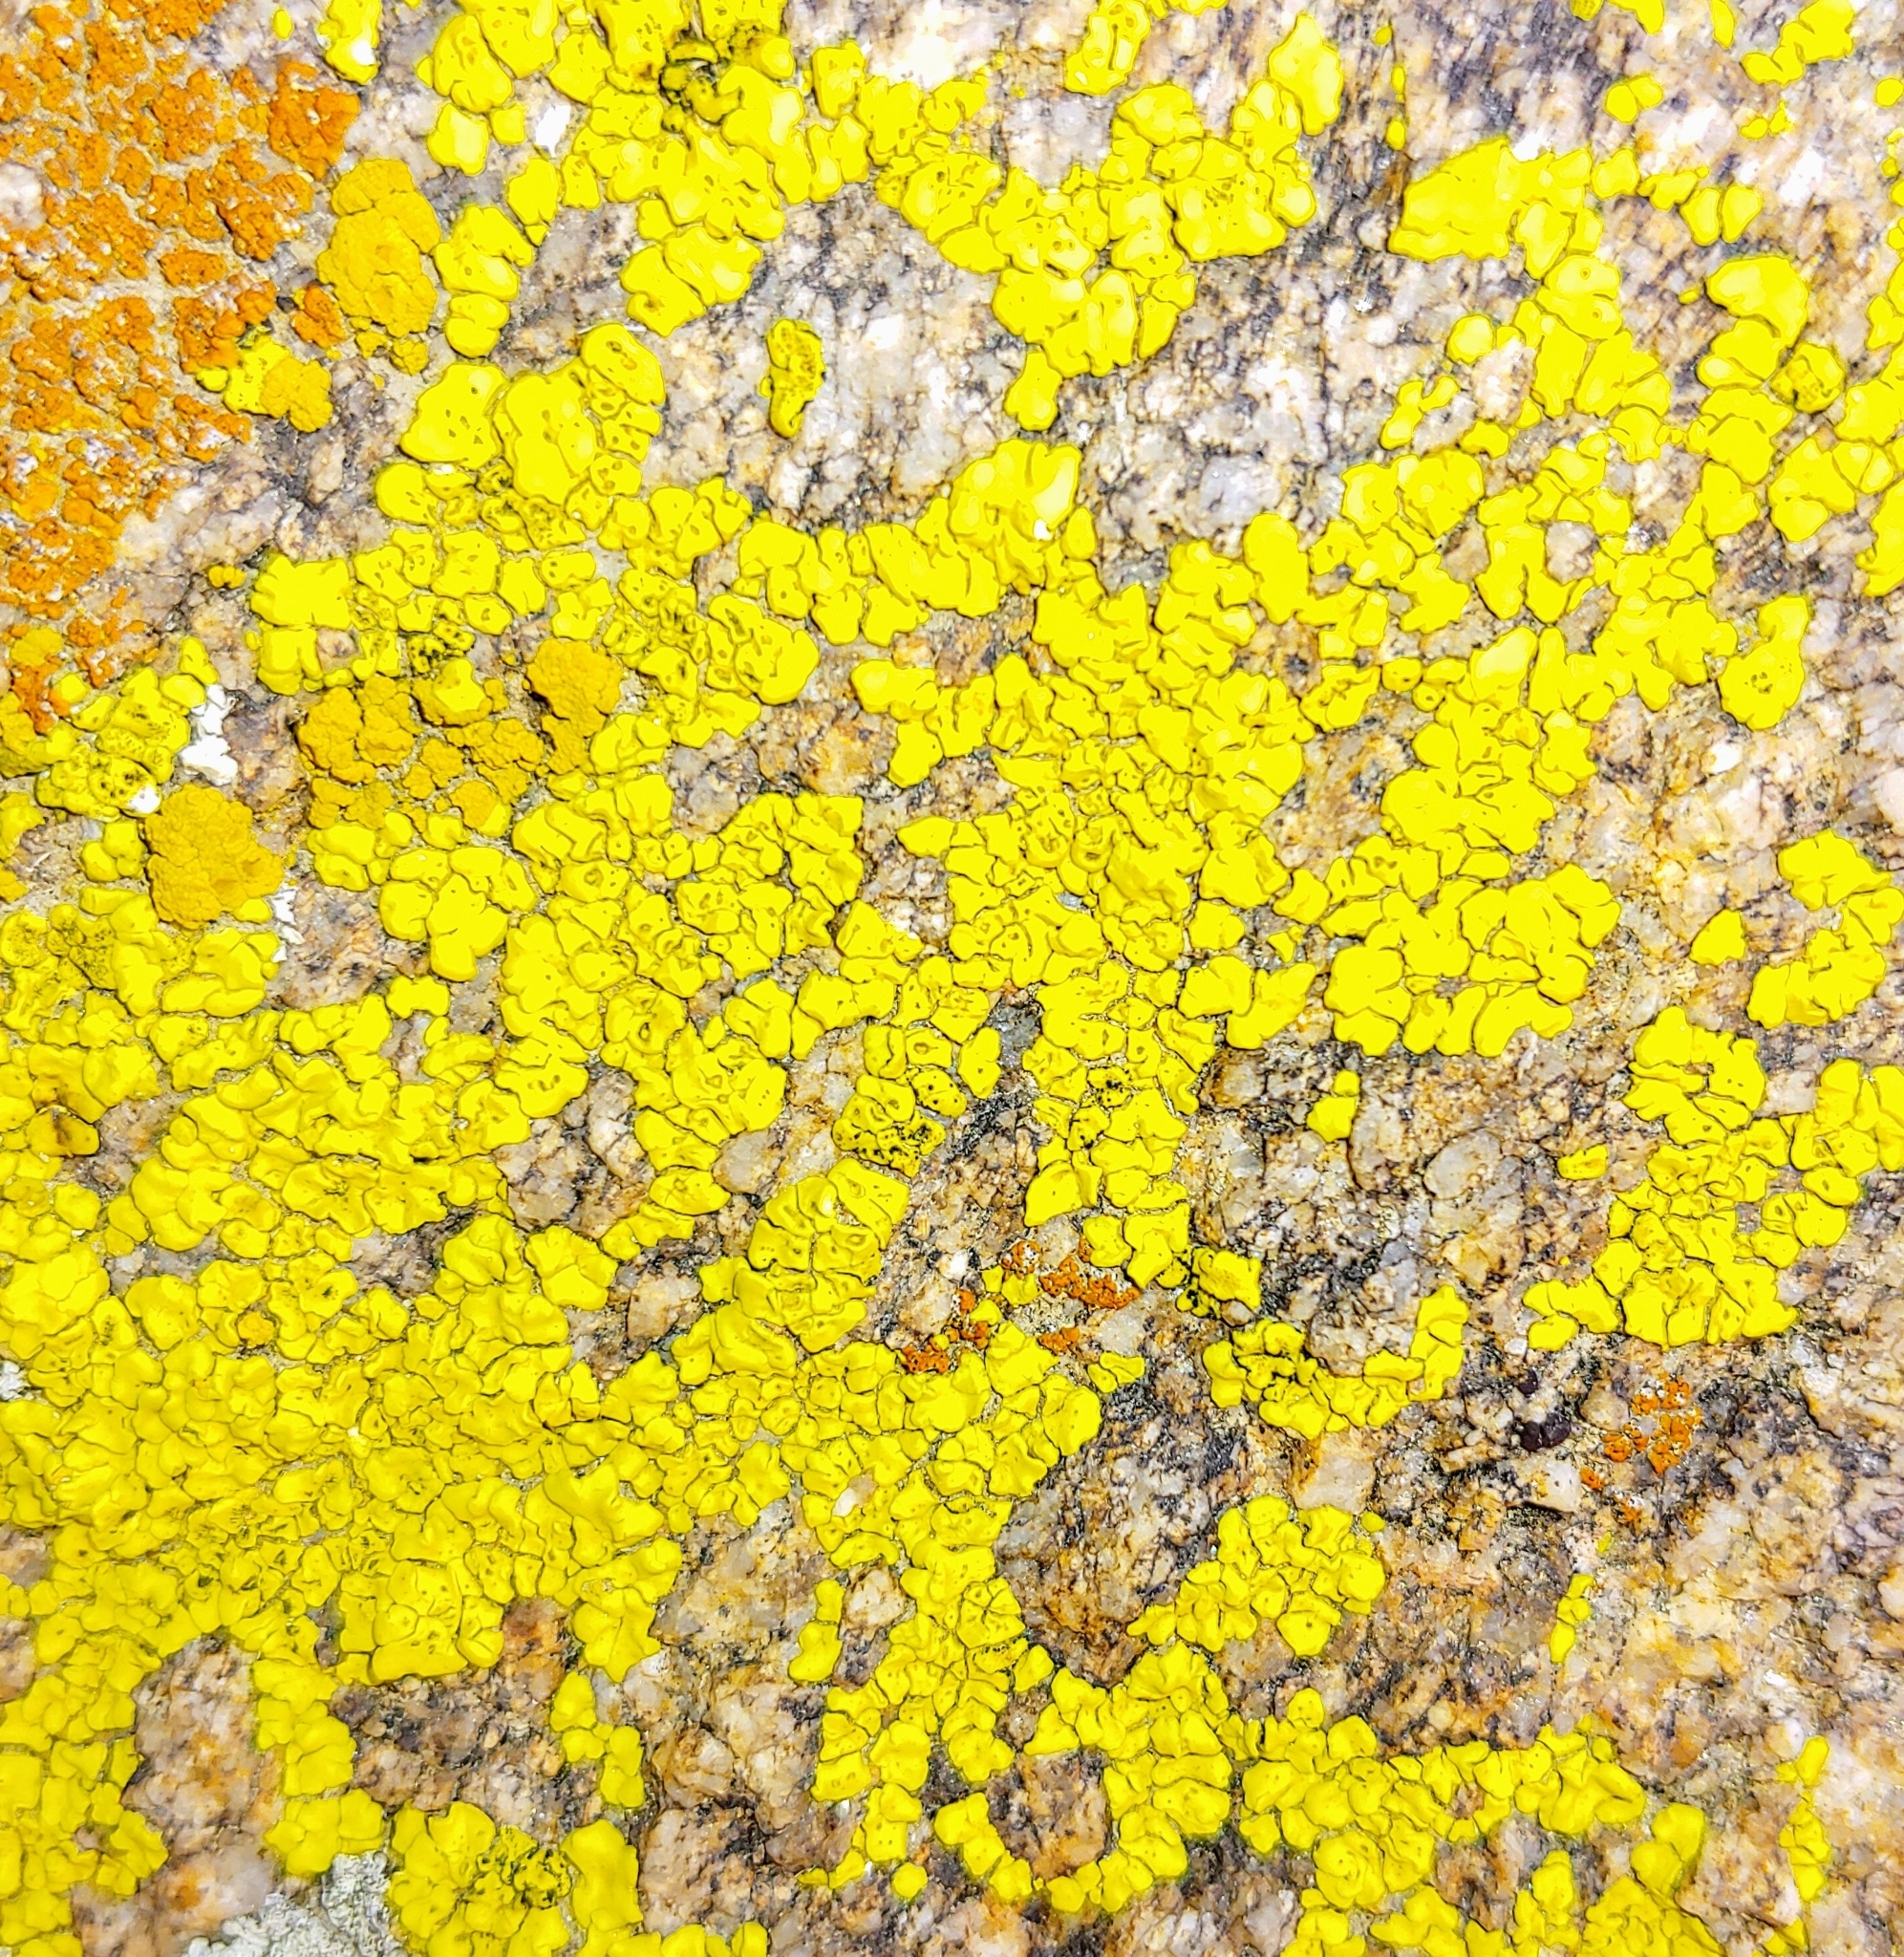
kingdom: Fungi
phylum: Ascomycota
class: Lecanoromycetes
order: Acarosporales
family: Acarosporaceae
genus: Acarospora
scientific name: Acarospora socialis
